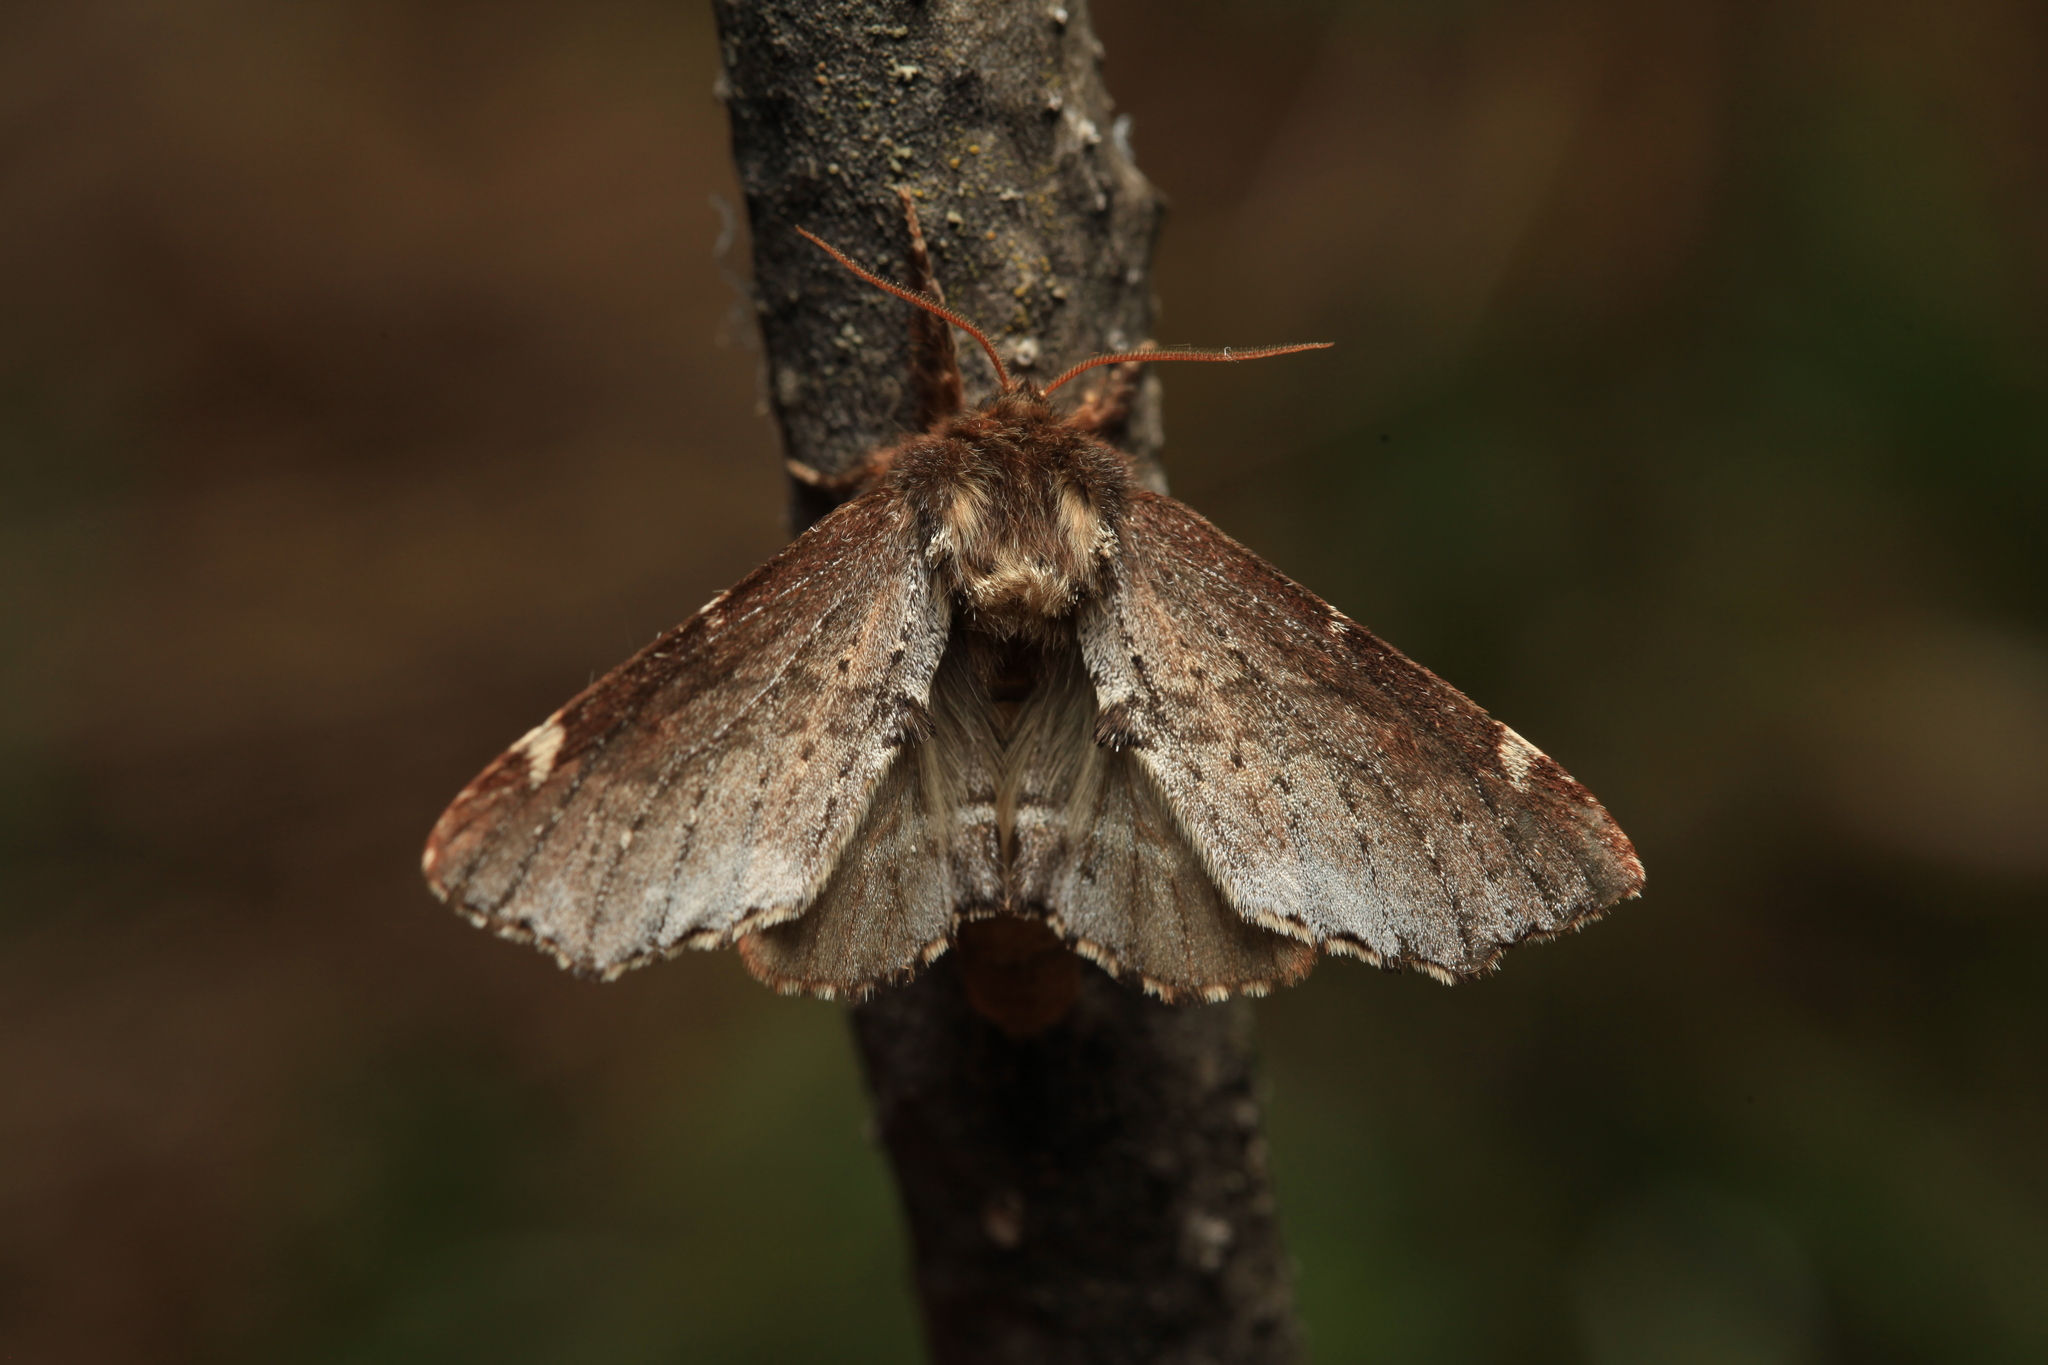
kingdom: Animalia
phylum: Arthropoda
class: Insecta
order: Lepidoptera
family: Notodontidae
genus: Odontosia
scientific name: Odontosia carmelita
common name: Scarce prominent
